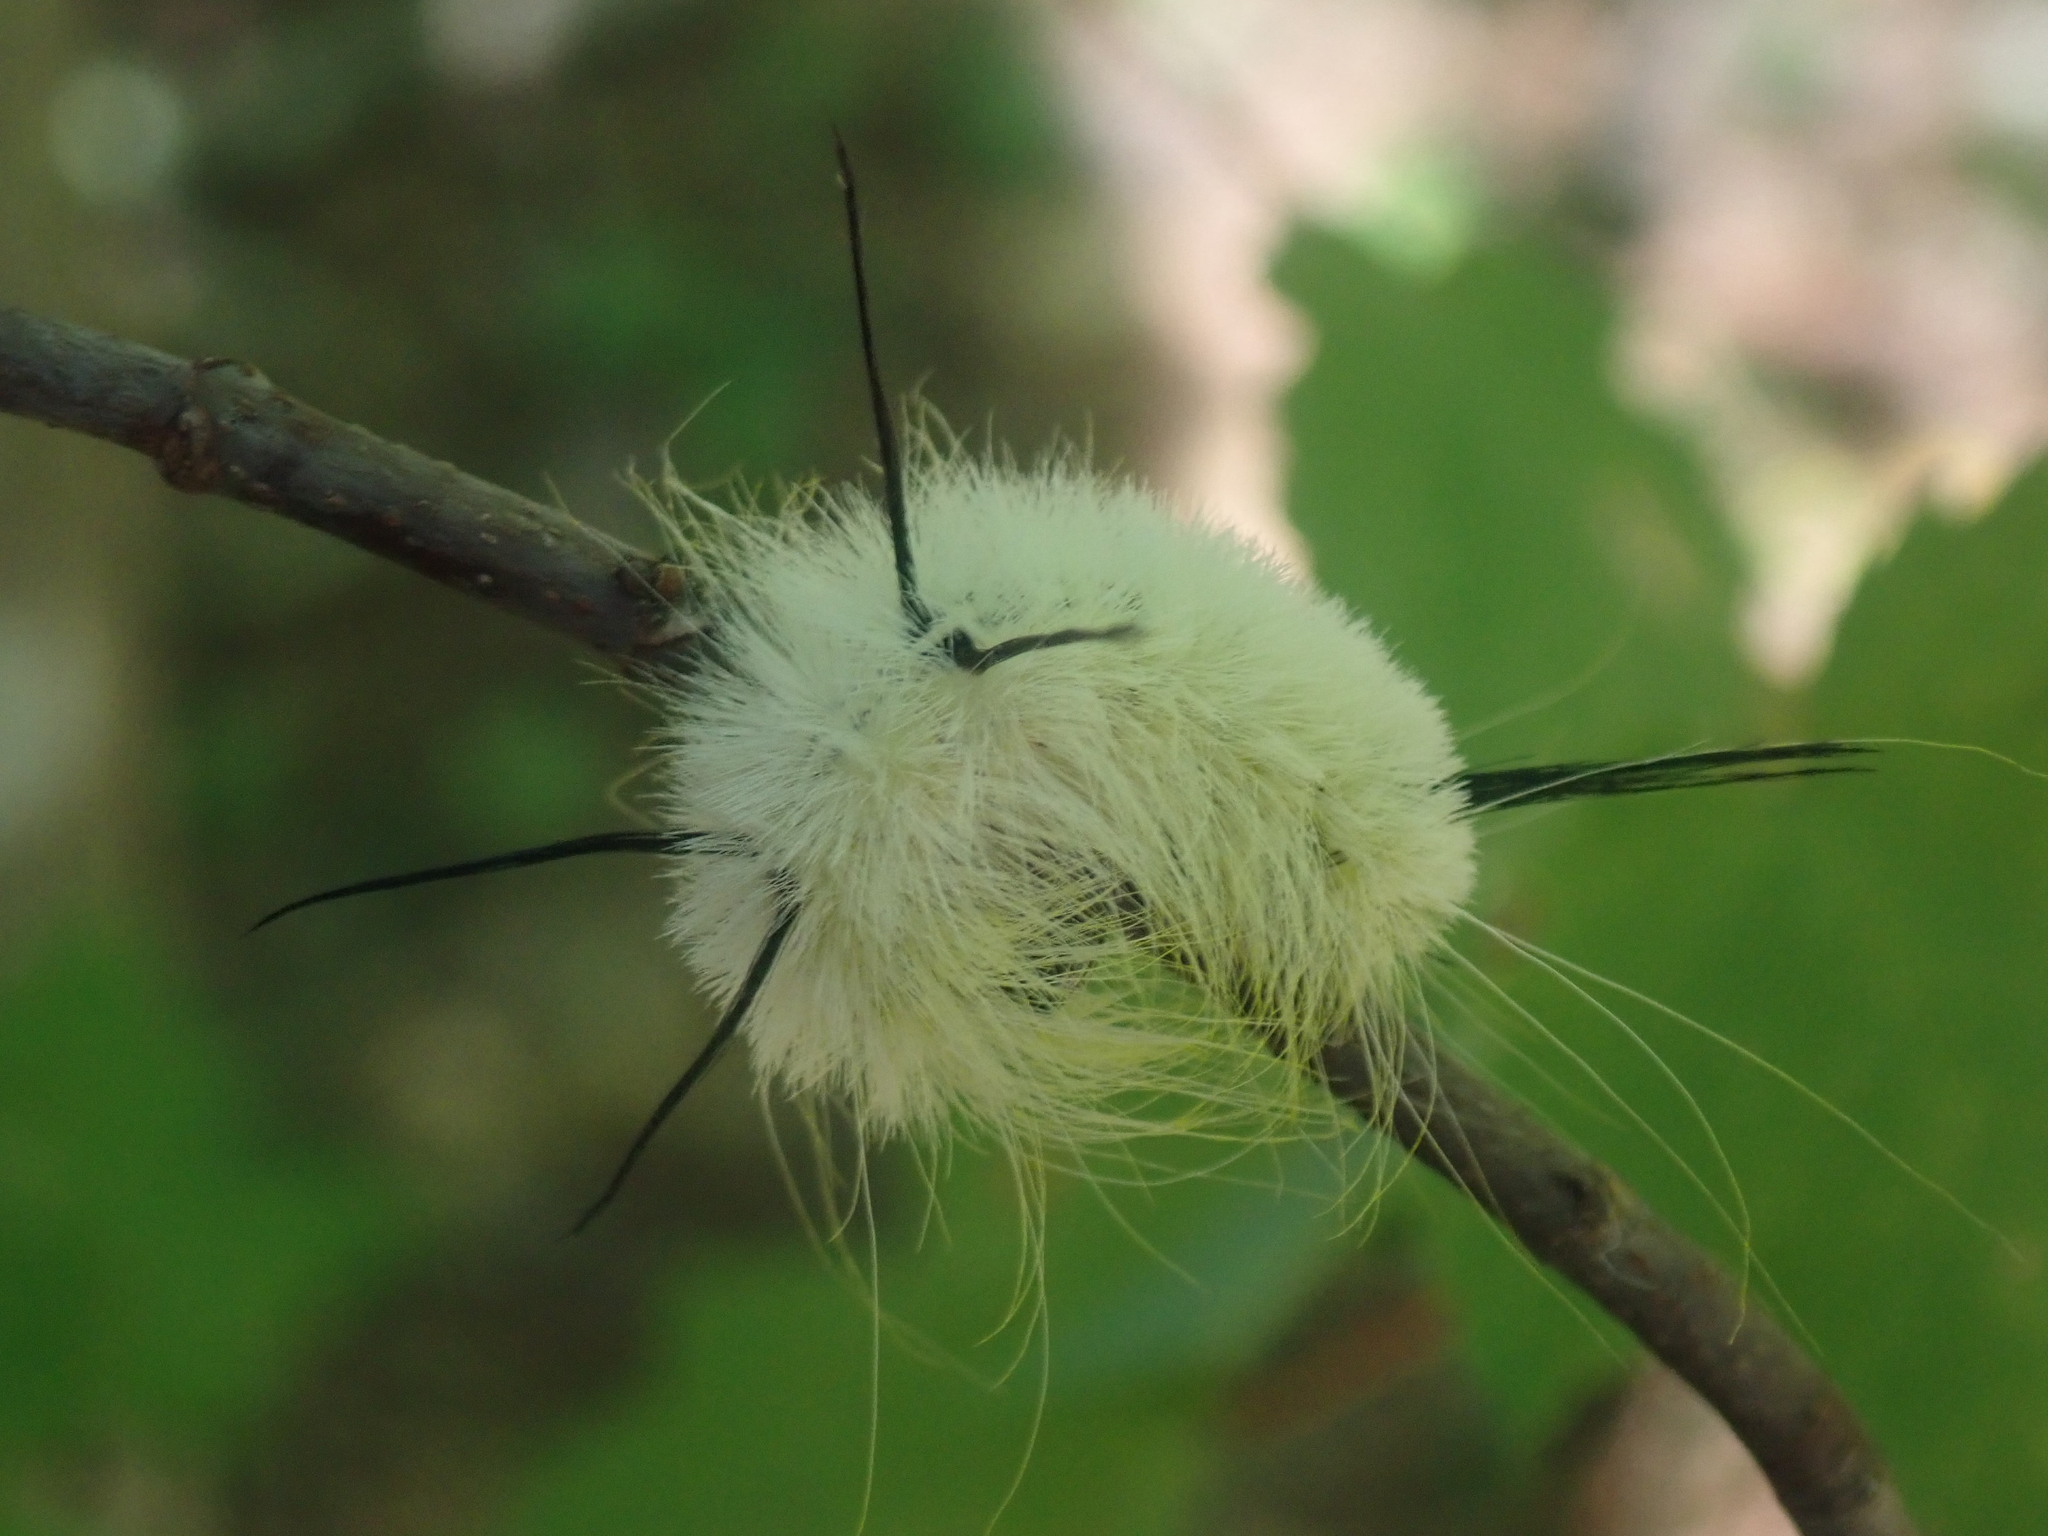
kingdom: Animalia
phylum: Arthropoda
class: Insecta
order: Lepidoptera
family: Noctuidae
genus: Acronicta
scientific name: Acronicta americana
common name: American dagger
